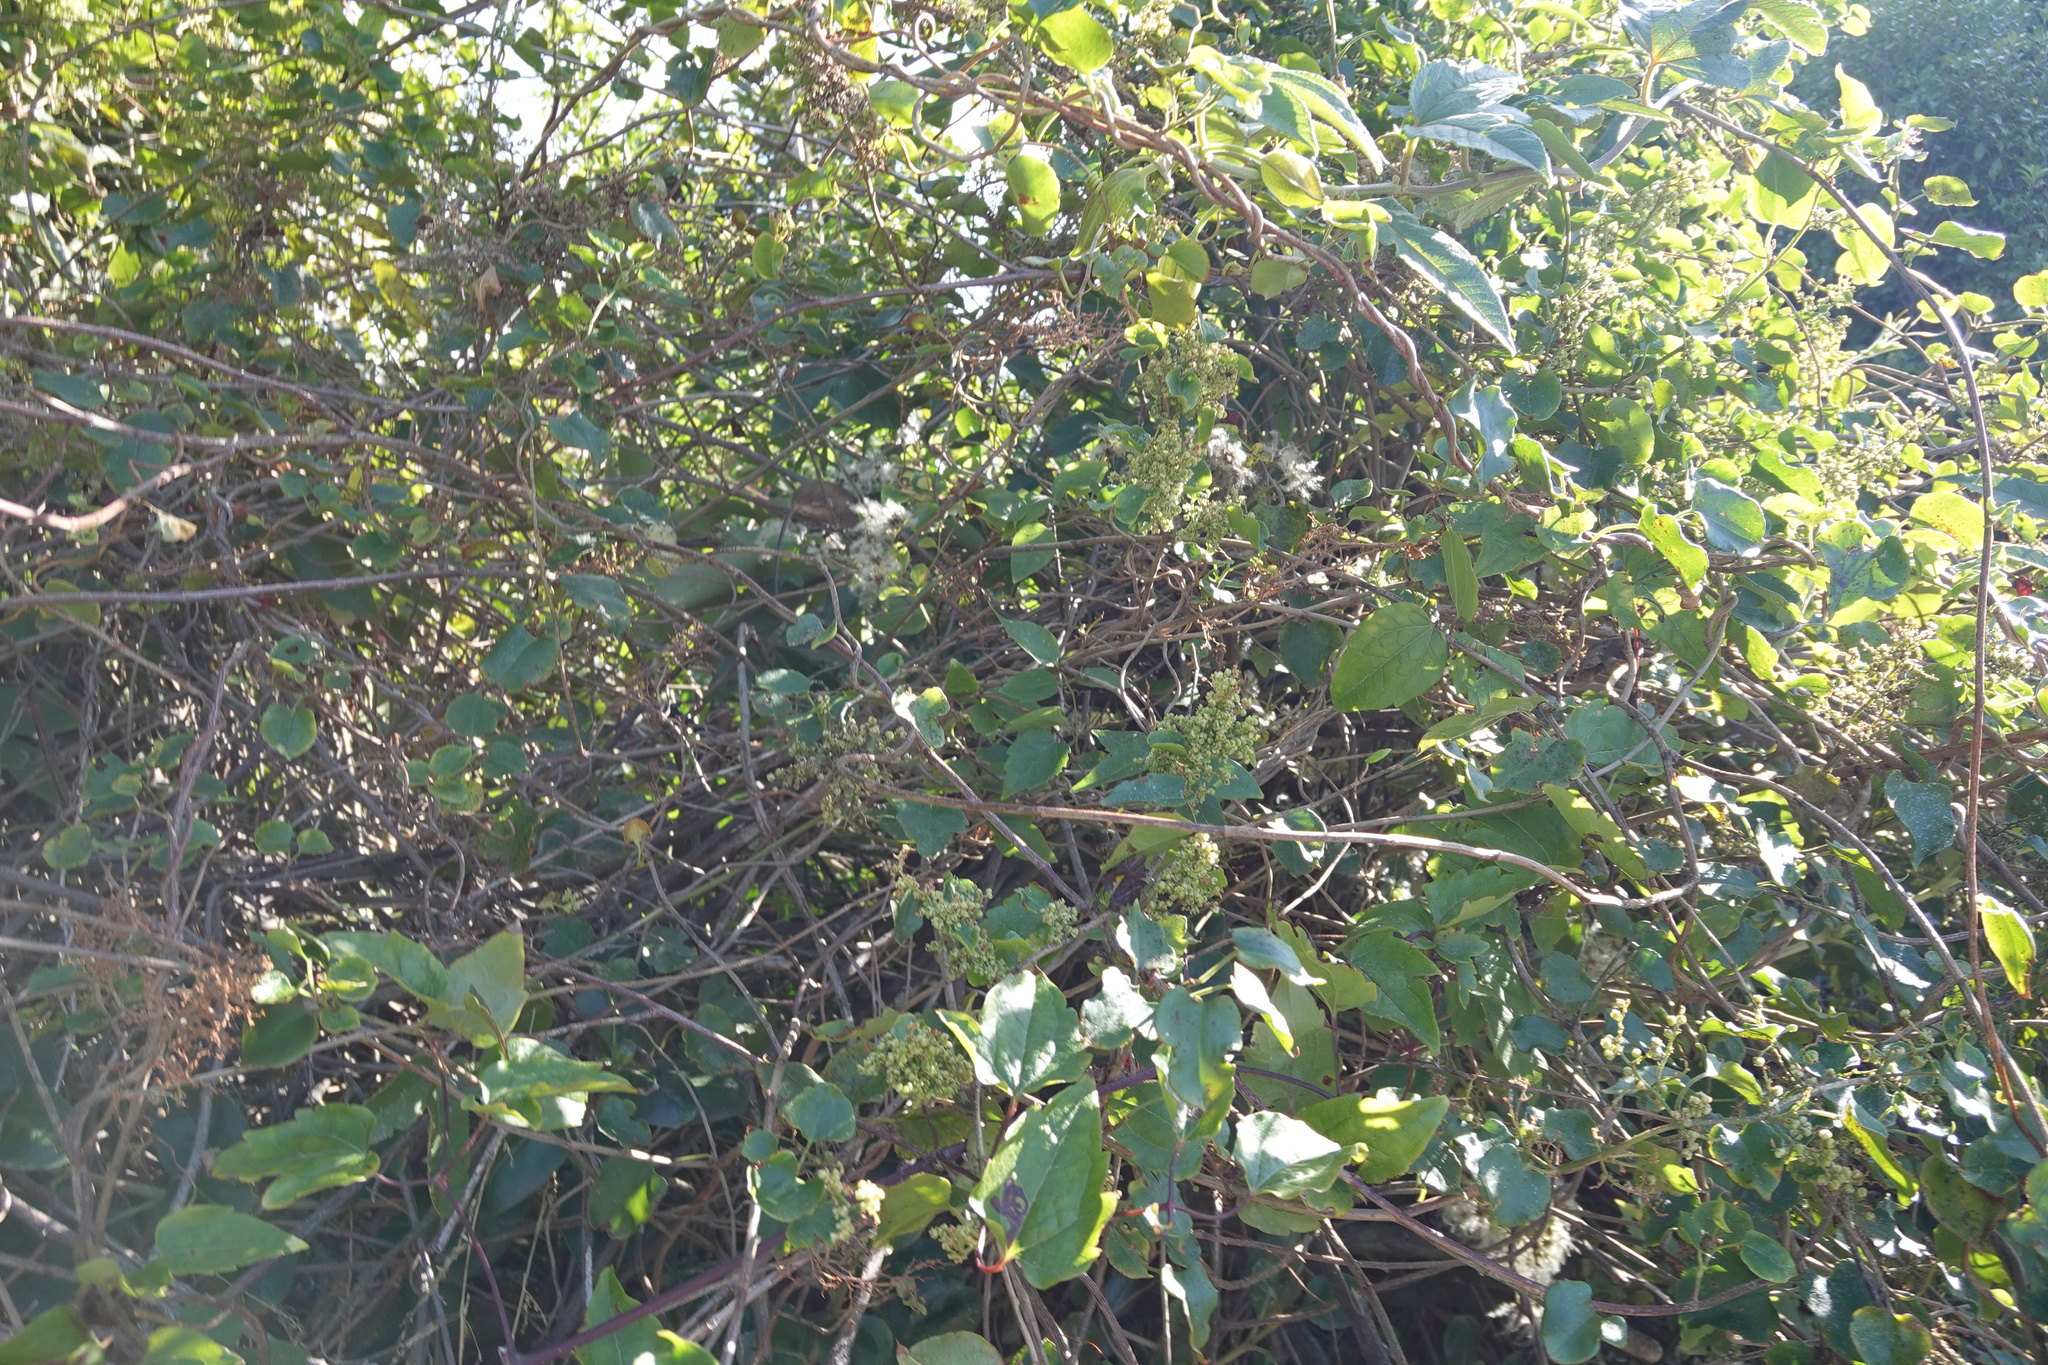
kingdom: Plantae
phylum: Tracheophyta
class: Magnoliopsida
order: Caryophyllales
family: Polygonaceae
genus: Muehlenbeckia
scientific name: Muehlenbeckia australis
